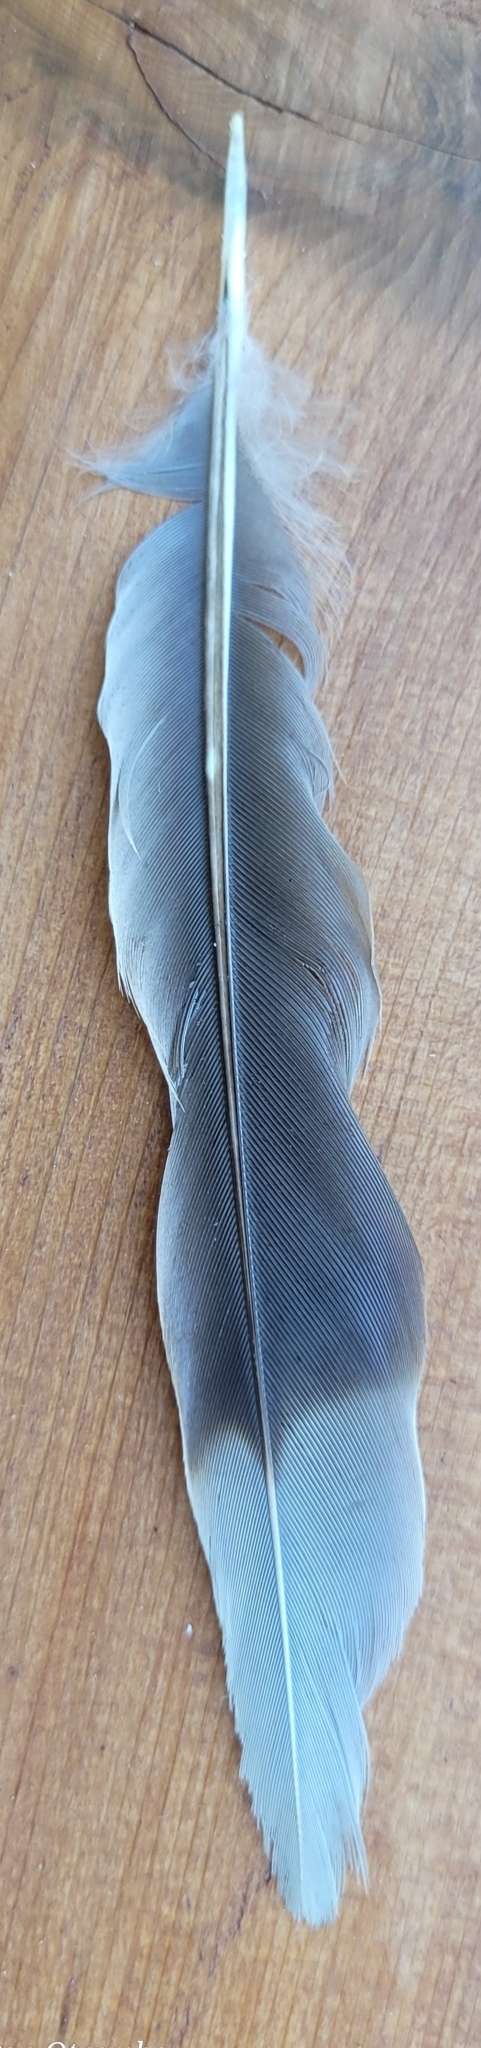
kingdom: Animalia
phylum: Chordata
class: Aves
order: Passeriformes
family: Corvidae
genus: Cyanocitta
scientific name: Cyanocitta cristata
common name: Blue jay
